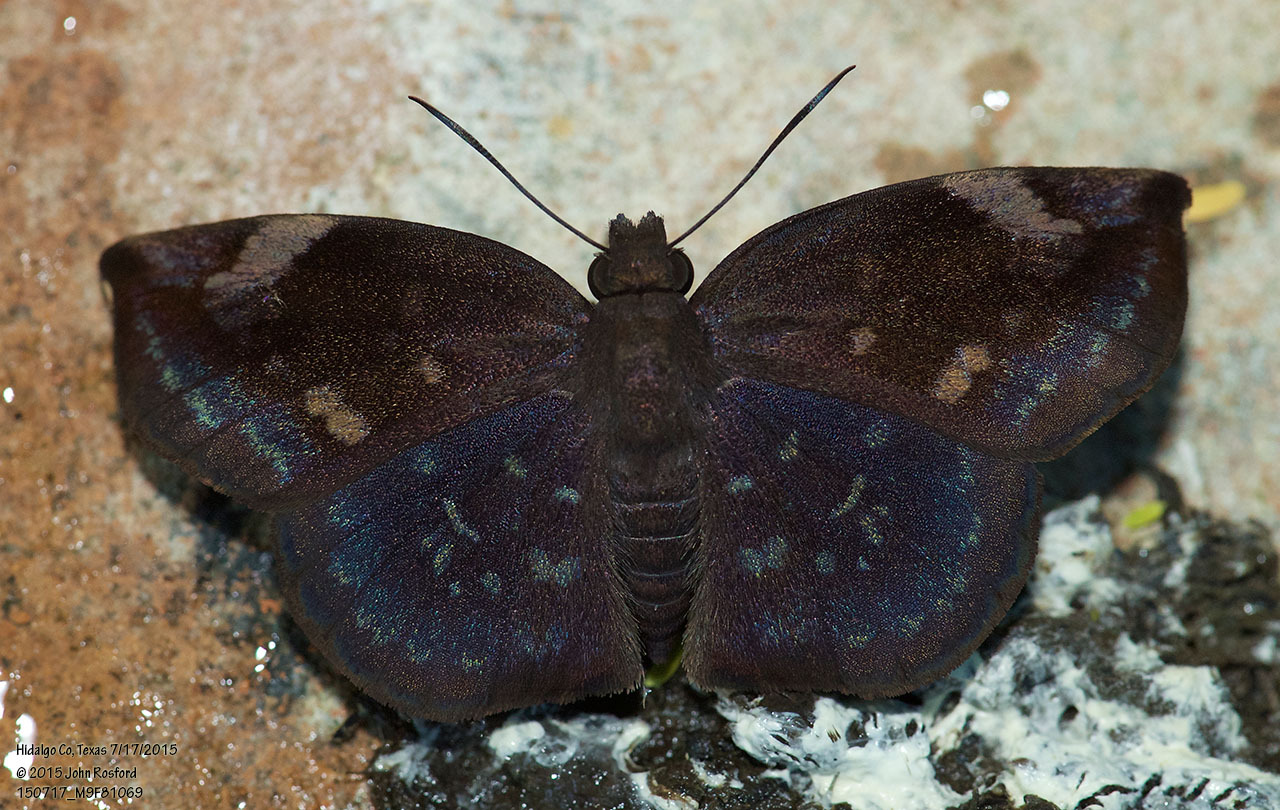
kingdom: Animalia
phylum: Arthropoda
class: Insecta
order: Lepidoptera
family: Hesperiidae
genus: Achlyodes
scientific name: Achlyodes thraso
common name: Sickle-winged skipper
